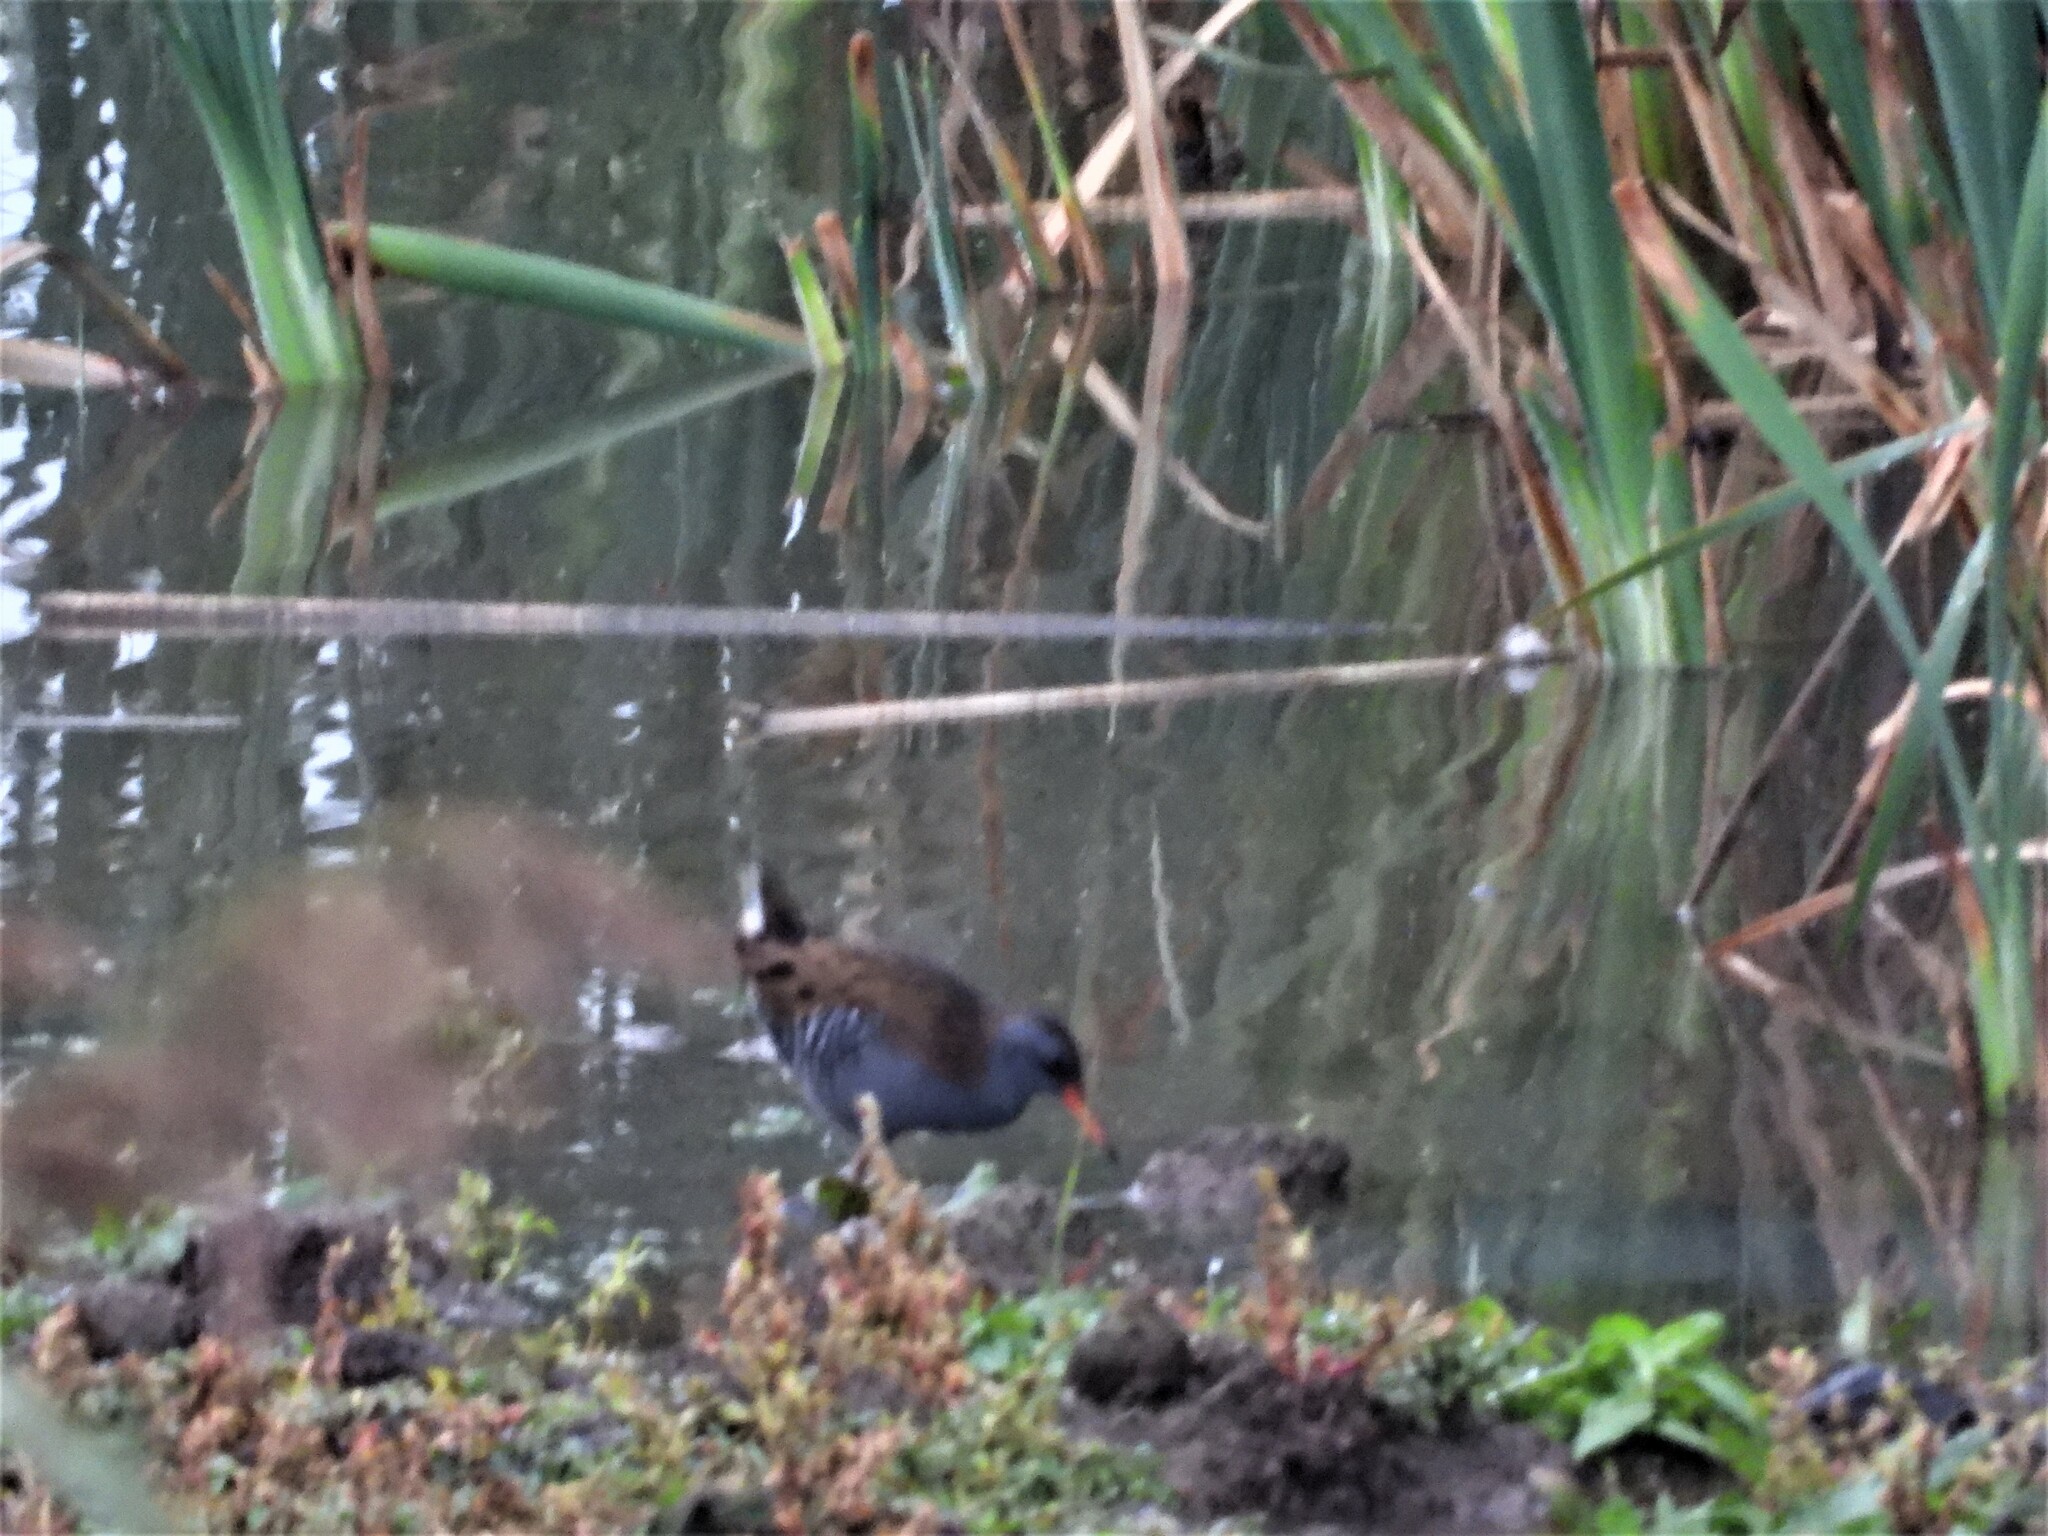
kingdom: Animalia
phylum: Chordata
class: Aves
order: Gruiformes
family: Rallidae
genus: Rallus
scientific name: Rallus aquaticus
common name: Water rail
